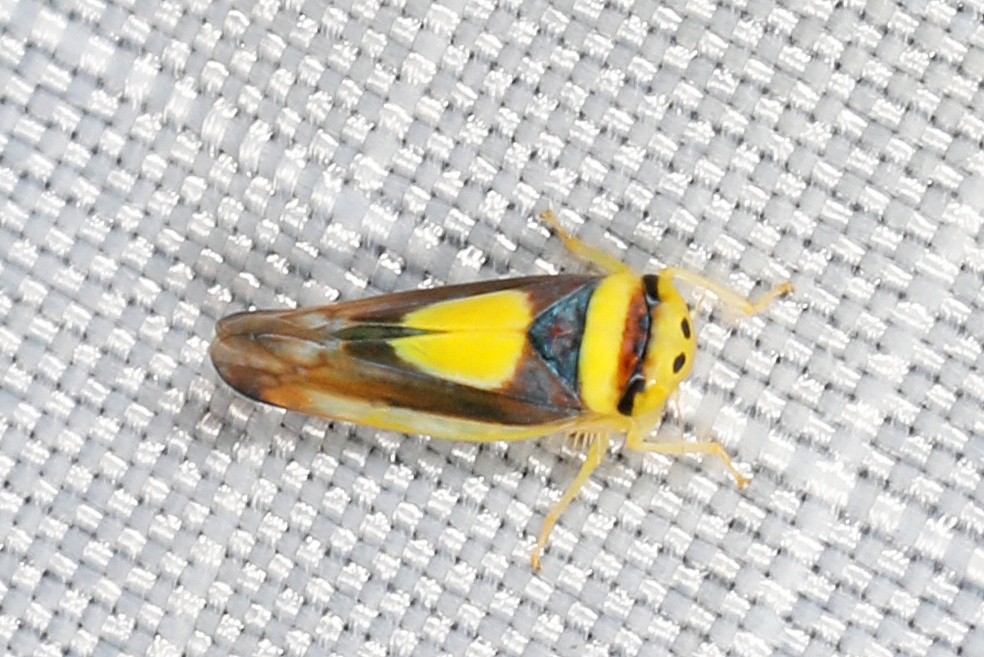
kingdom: Animalia
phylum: Arthropoda
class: Insecta
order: Hemiptera
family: Cicadellidae
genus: Colladonus
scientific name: Colladonus clitellarius
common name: The saddleback leafhopper
